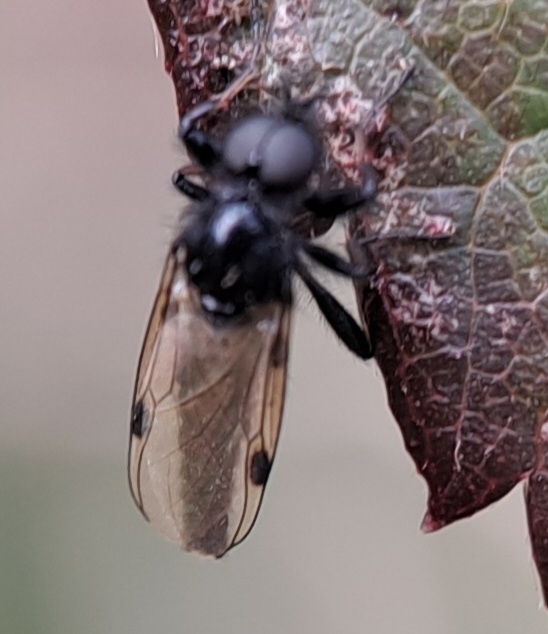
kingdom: Animalia
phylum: Arthropoda
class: Insecta
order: Diptera
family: Bibionidae
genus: Bibio
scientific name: Bibio johannis
